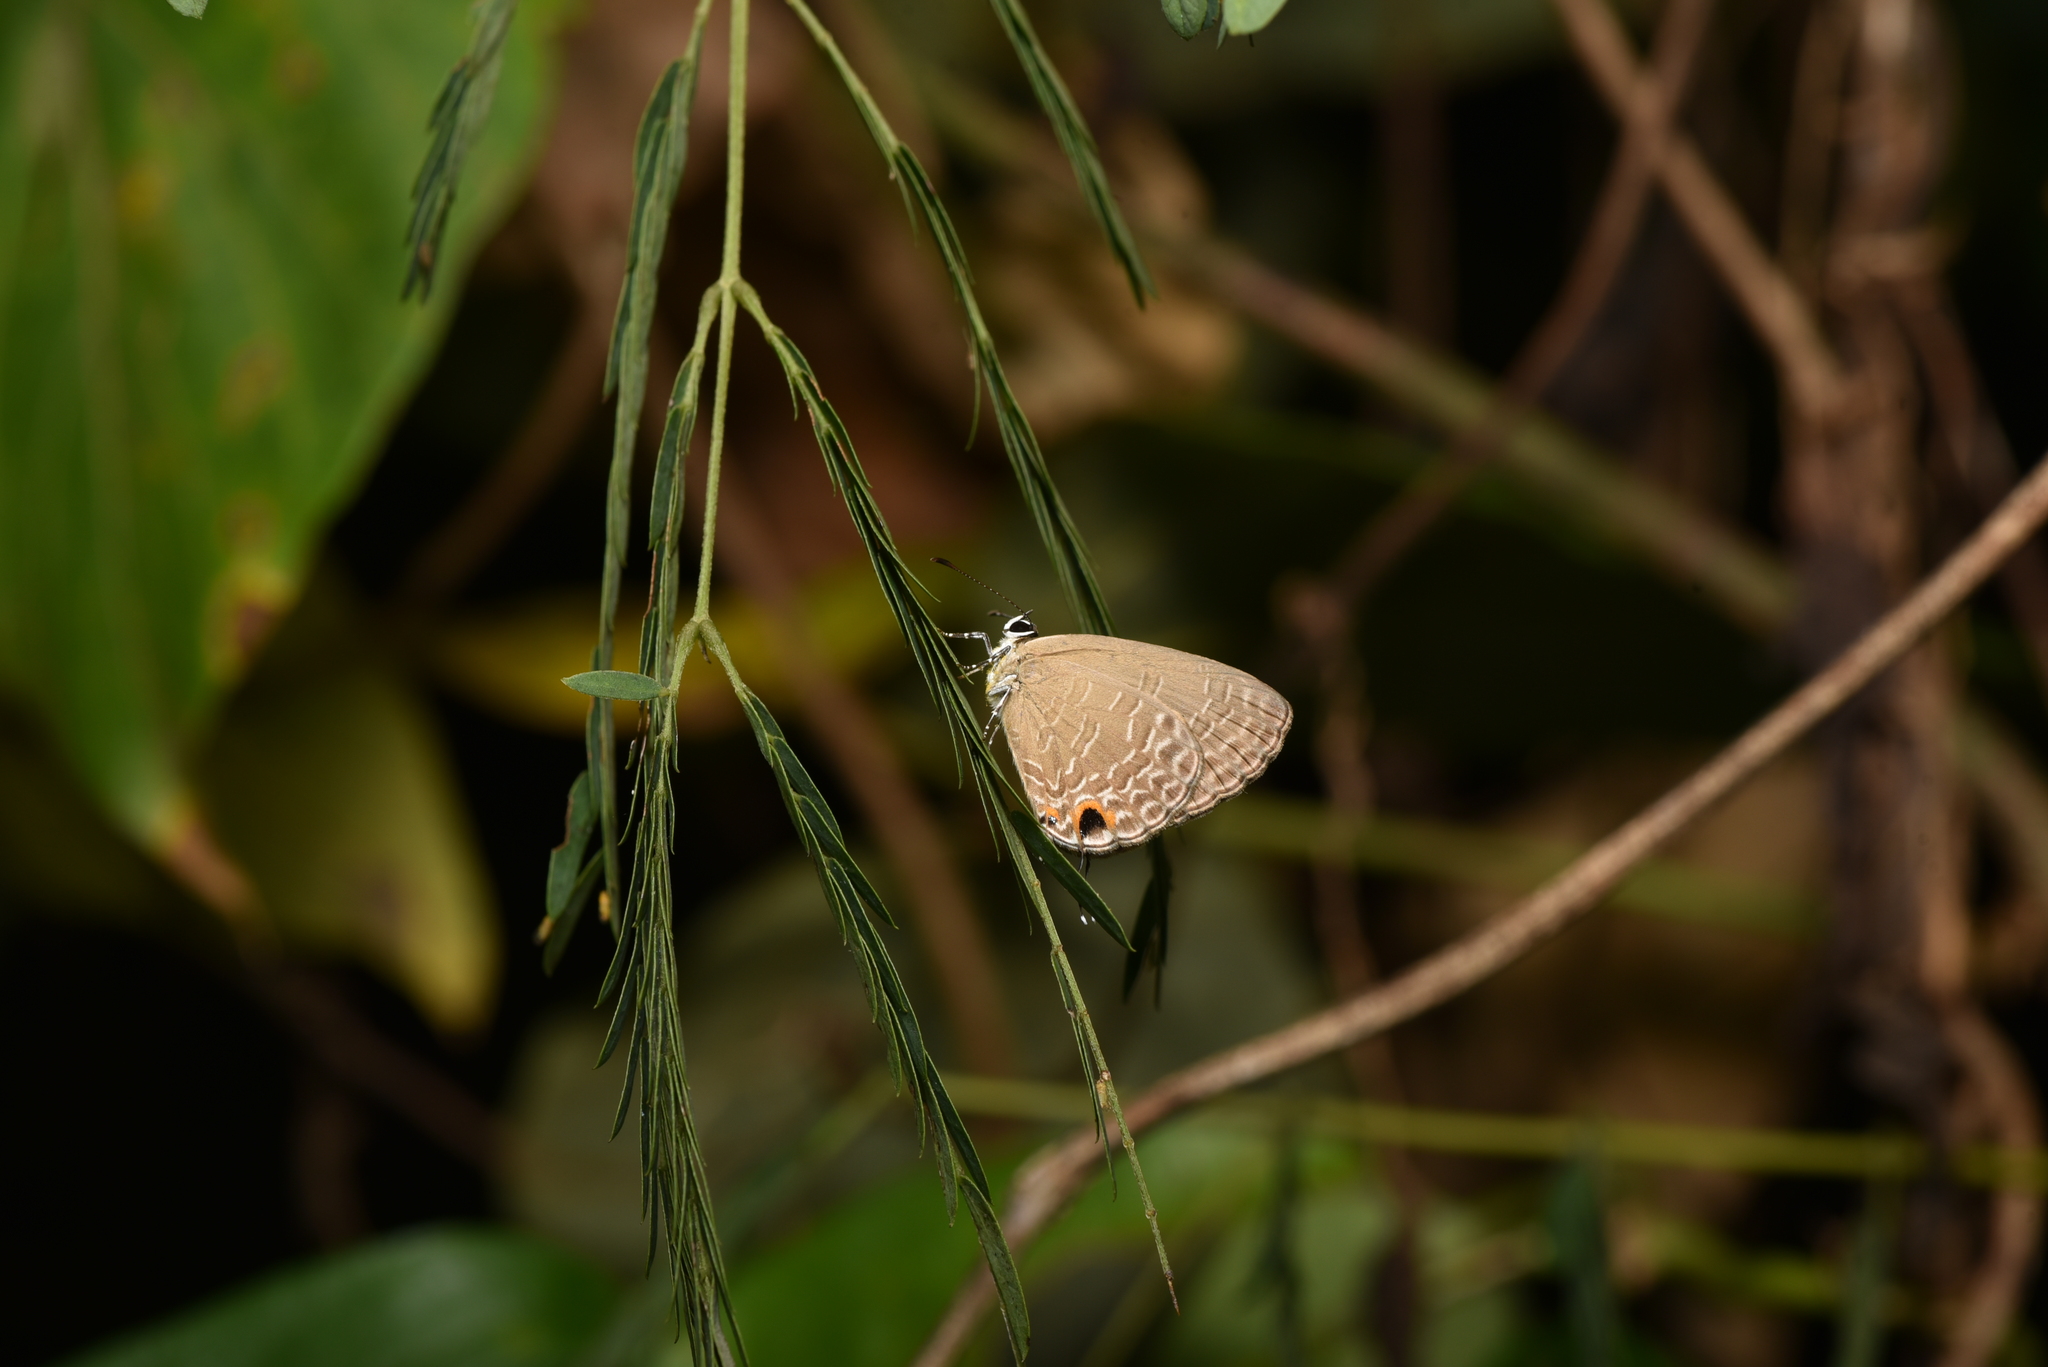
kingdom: Animalia
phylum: Arthropoda
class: Insecta
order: Lepidoptera
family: Lycaenidae
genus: Jamides
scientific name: Jamides bochus
